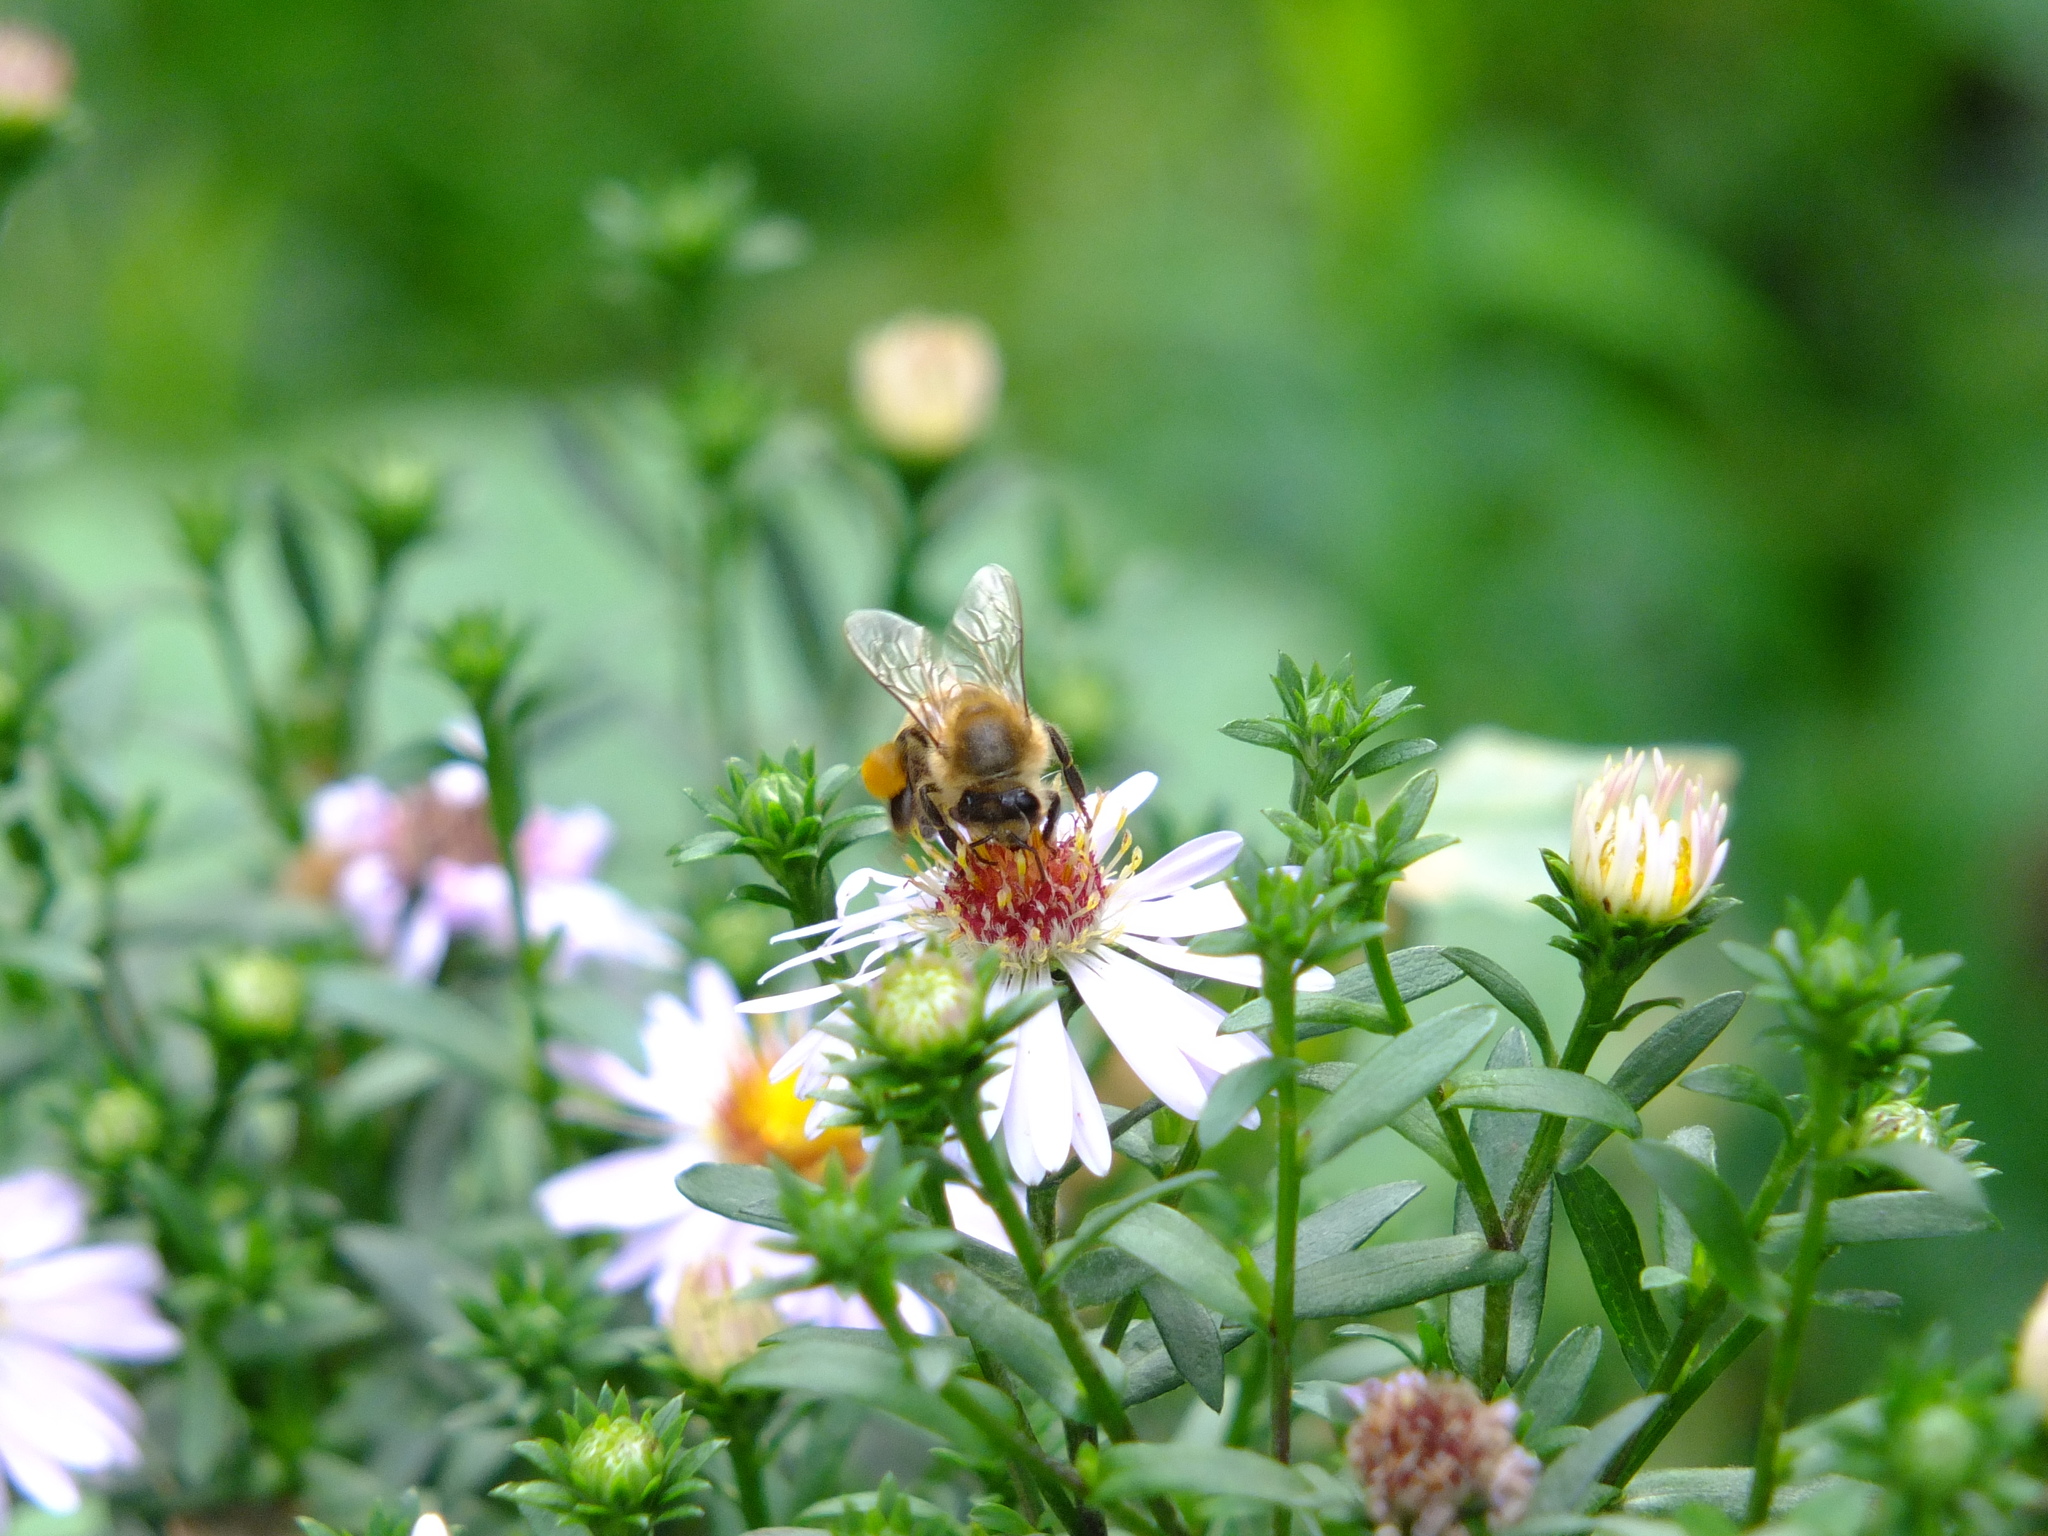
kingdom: Animalia
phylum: Arthropoda
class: Insecta
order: Hymenoptera
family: Apidae
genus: Apis
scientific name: Apis mellifera
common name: Honey bee
